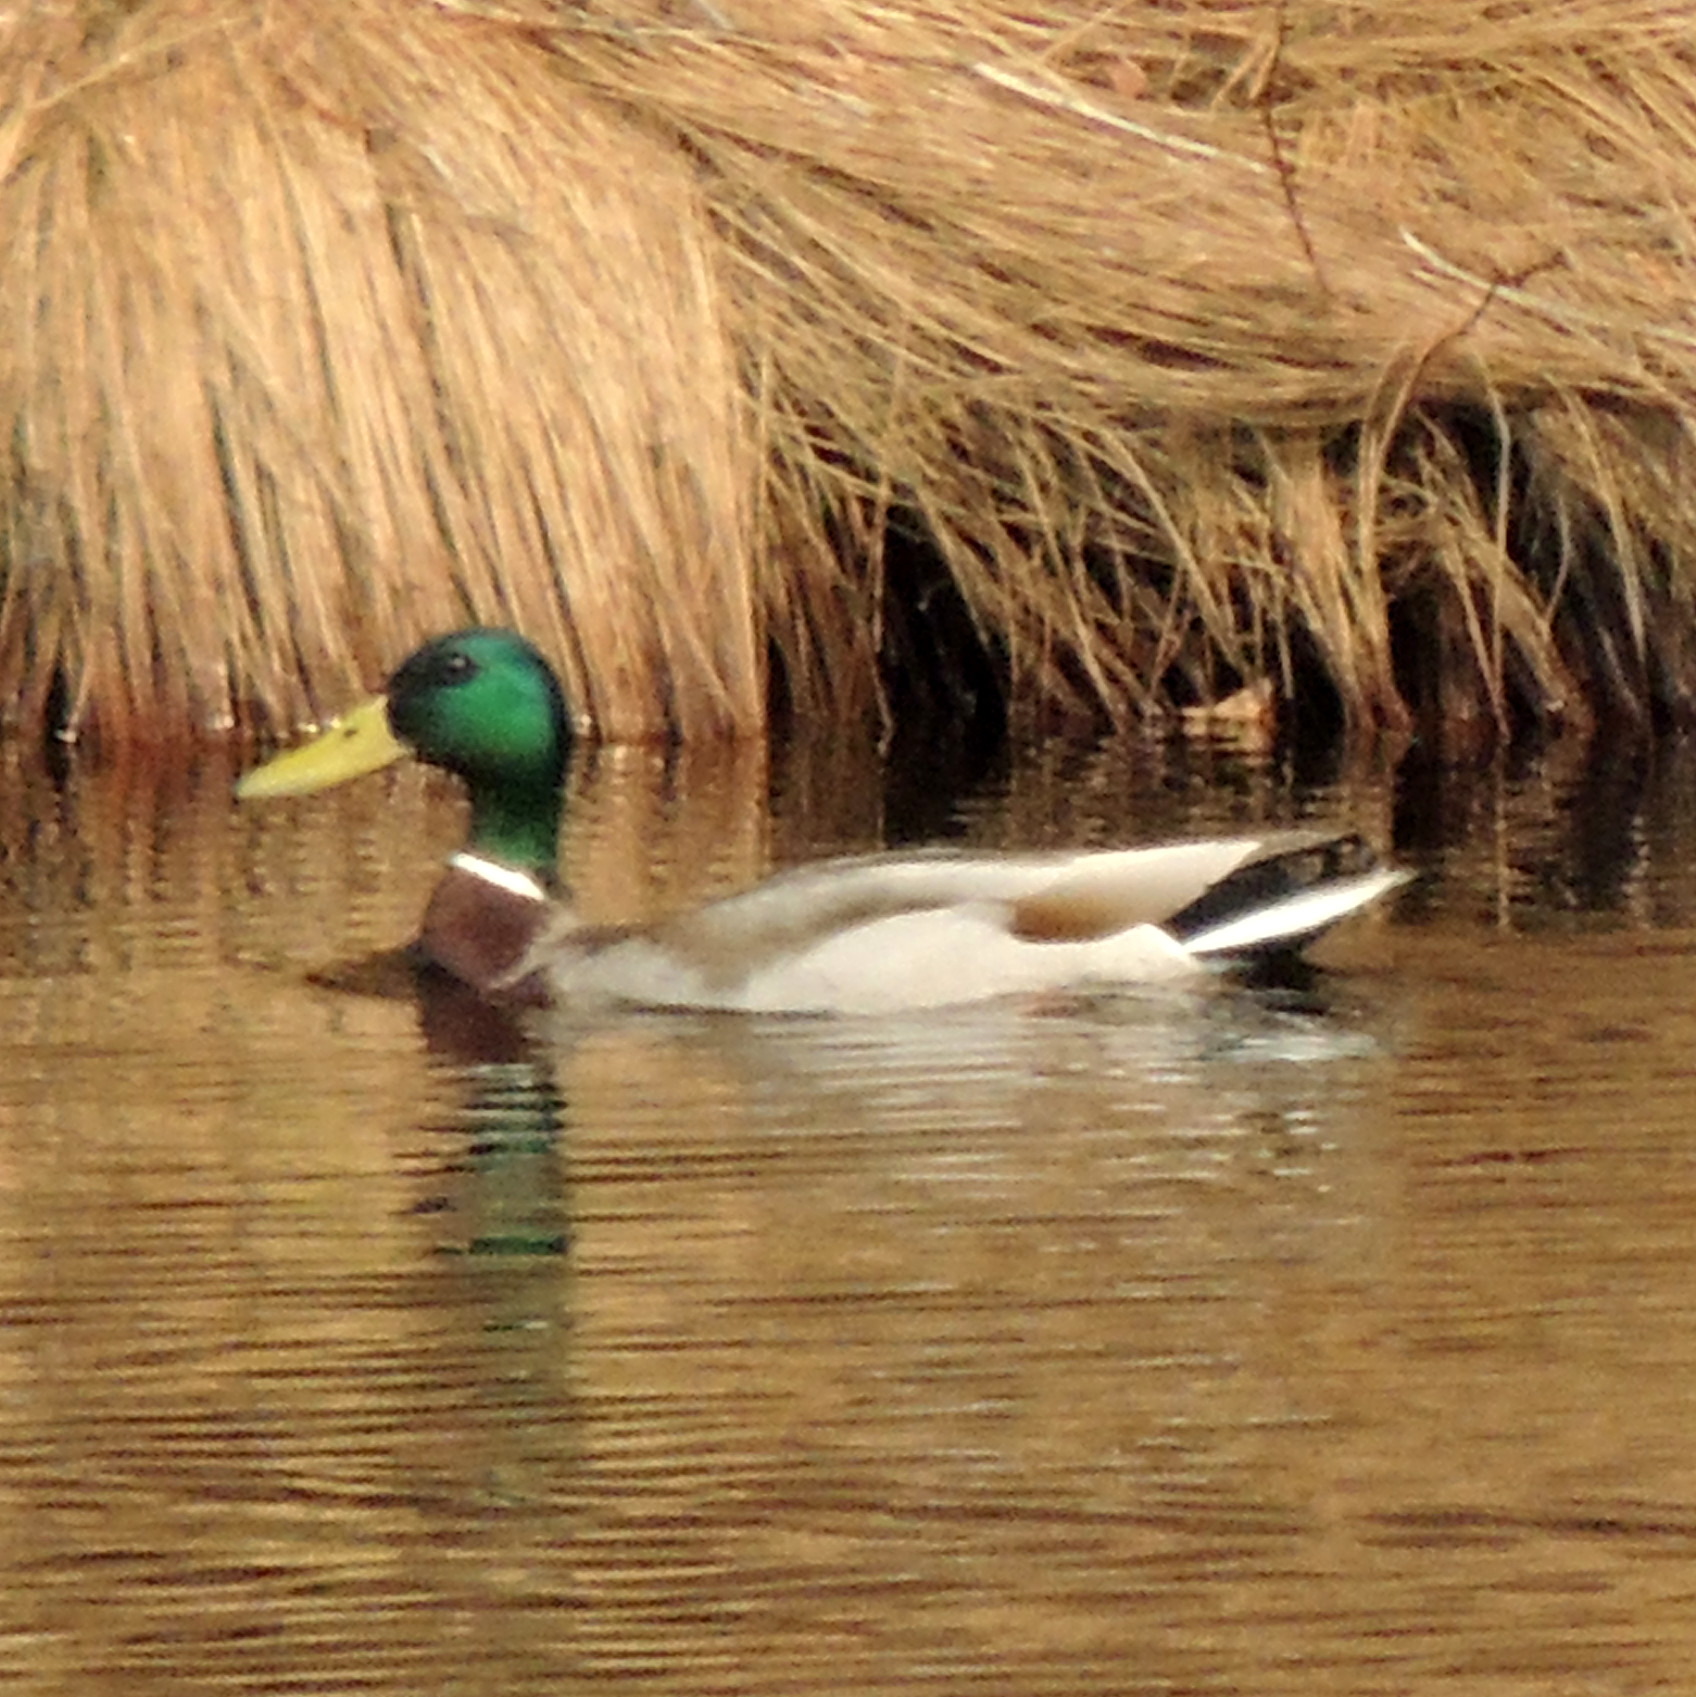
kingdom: Animalia
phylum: Chordata
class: Aves
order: Anseriformes
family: Anatidae
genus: Anas
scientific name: Anas platyrhynchos
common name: Mallard
